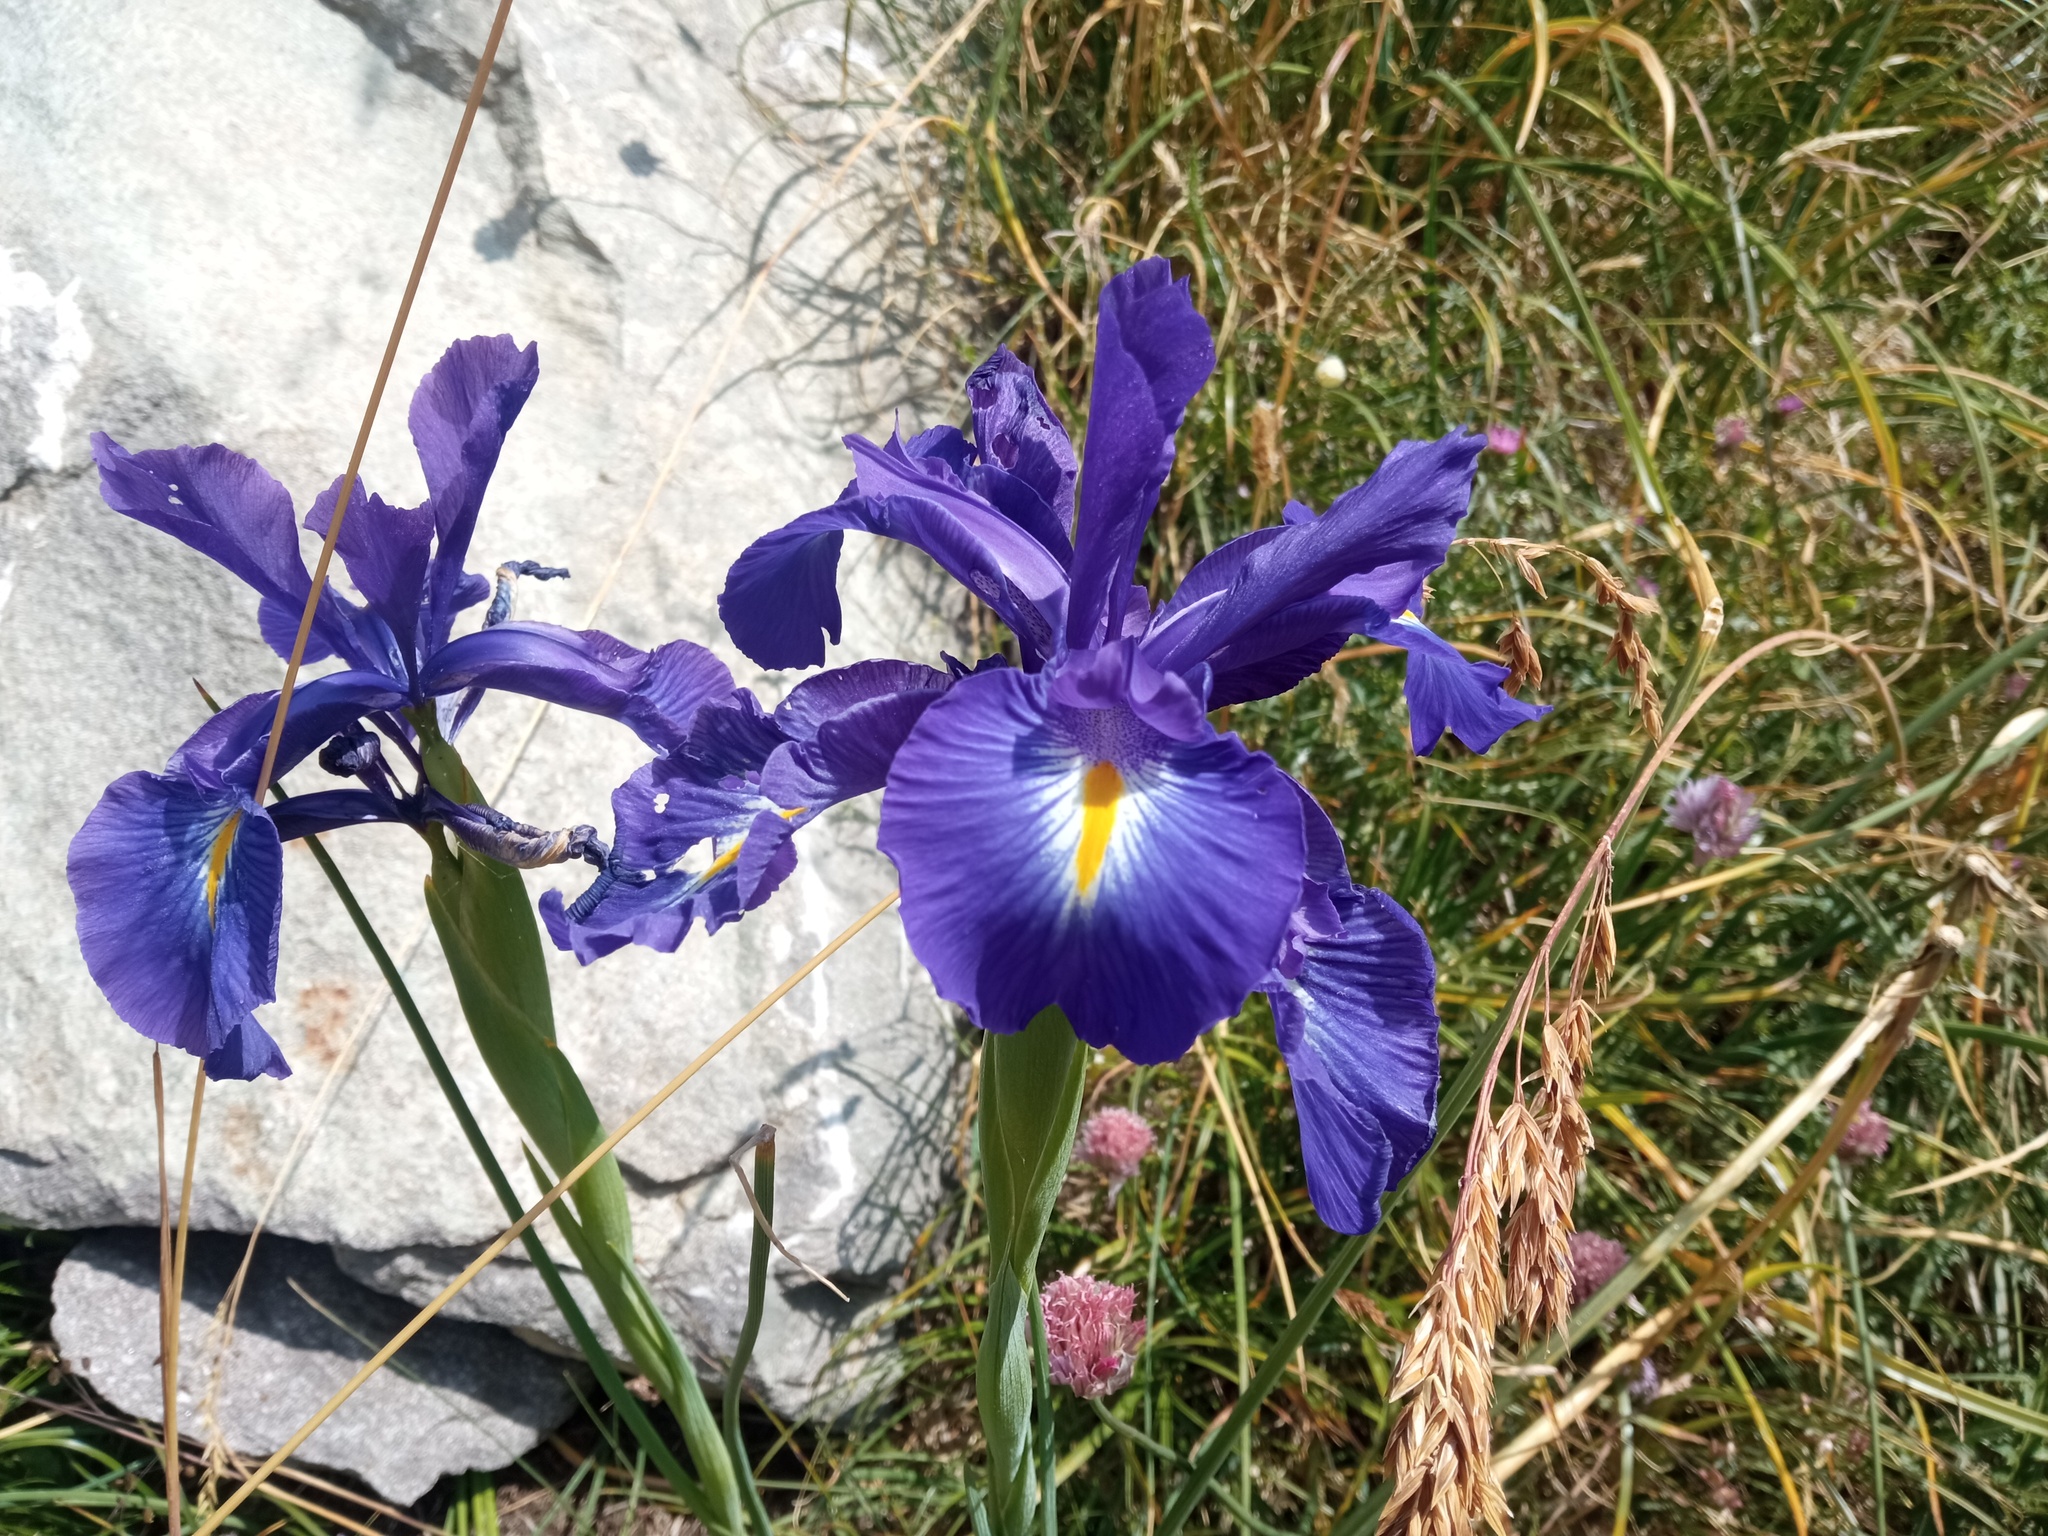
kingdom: Plantae
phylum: Tracheophyta
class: Liliopsida
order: Asparagales
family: Iridaceae
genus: Iris
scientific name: Iris
